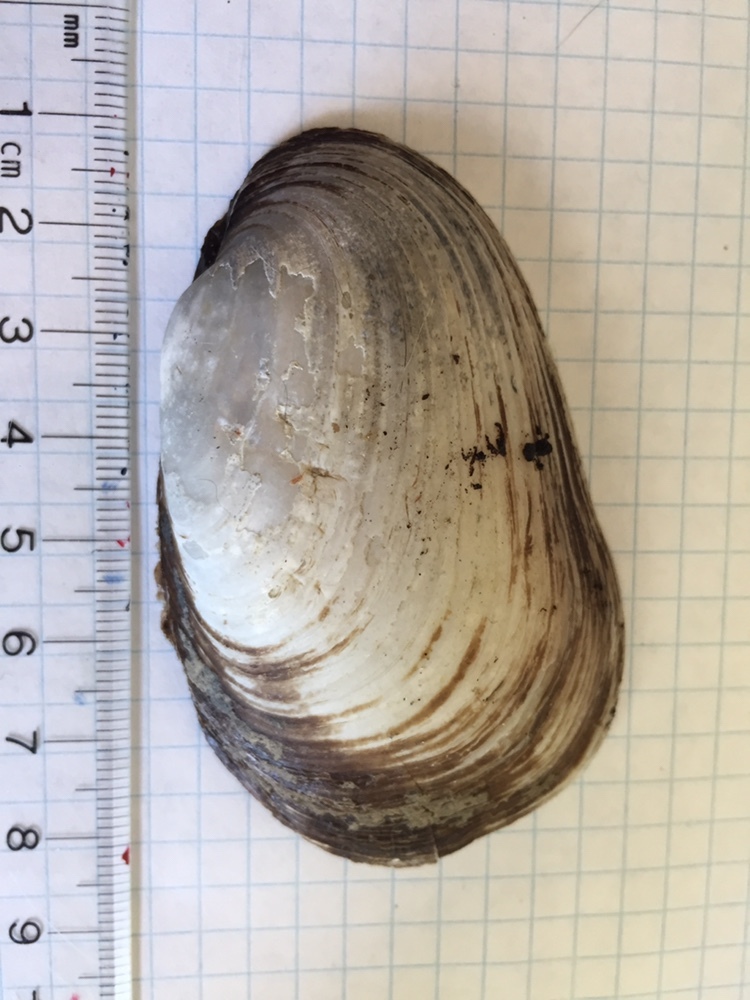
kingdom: Animalia
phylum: Mollusca
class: Bivalvia
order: Unionida
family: Unionidae
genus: Lampsilis
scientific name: Lampsilis siliquoidea
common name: Fatmucket
